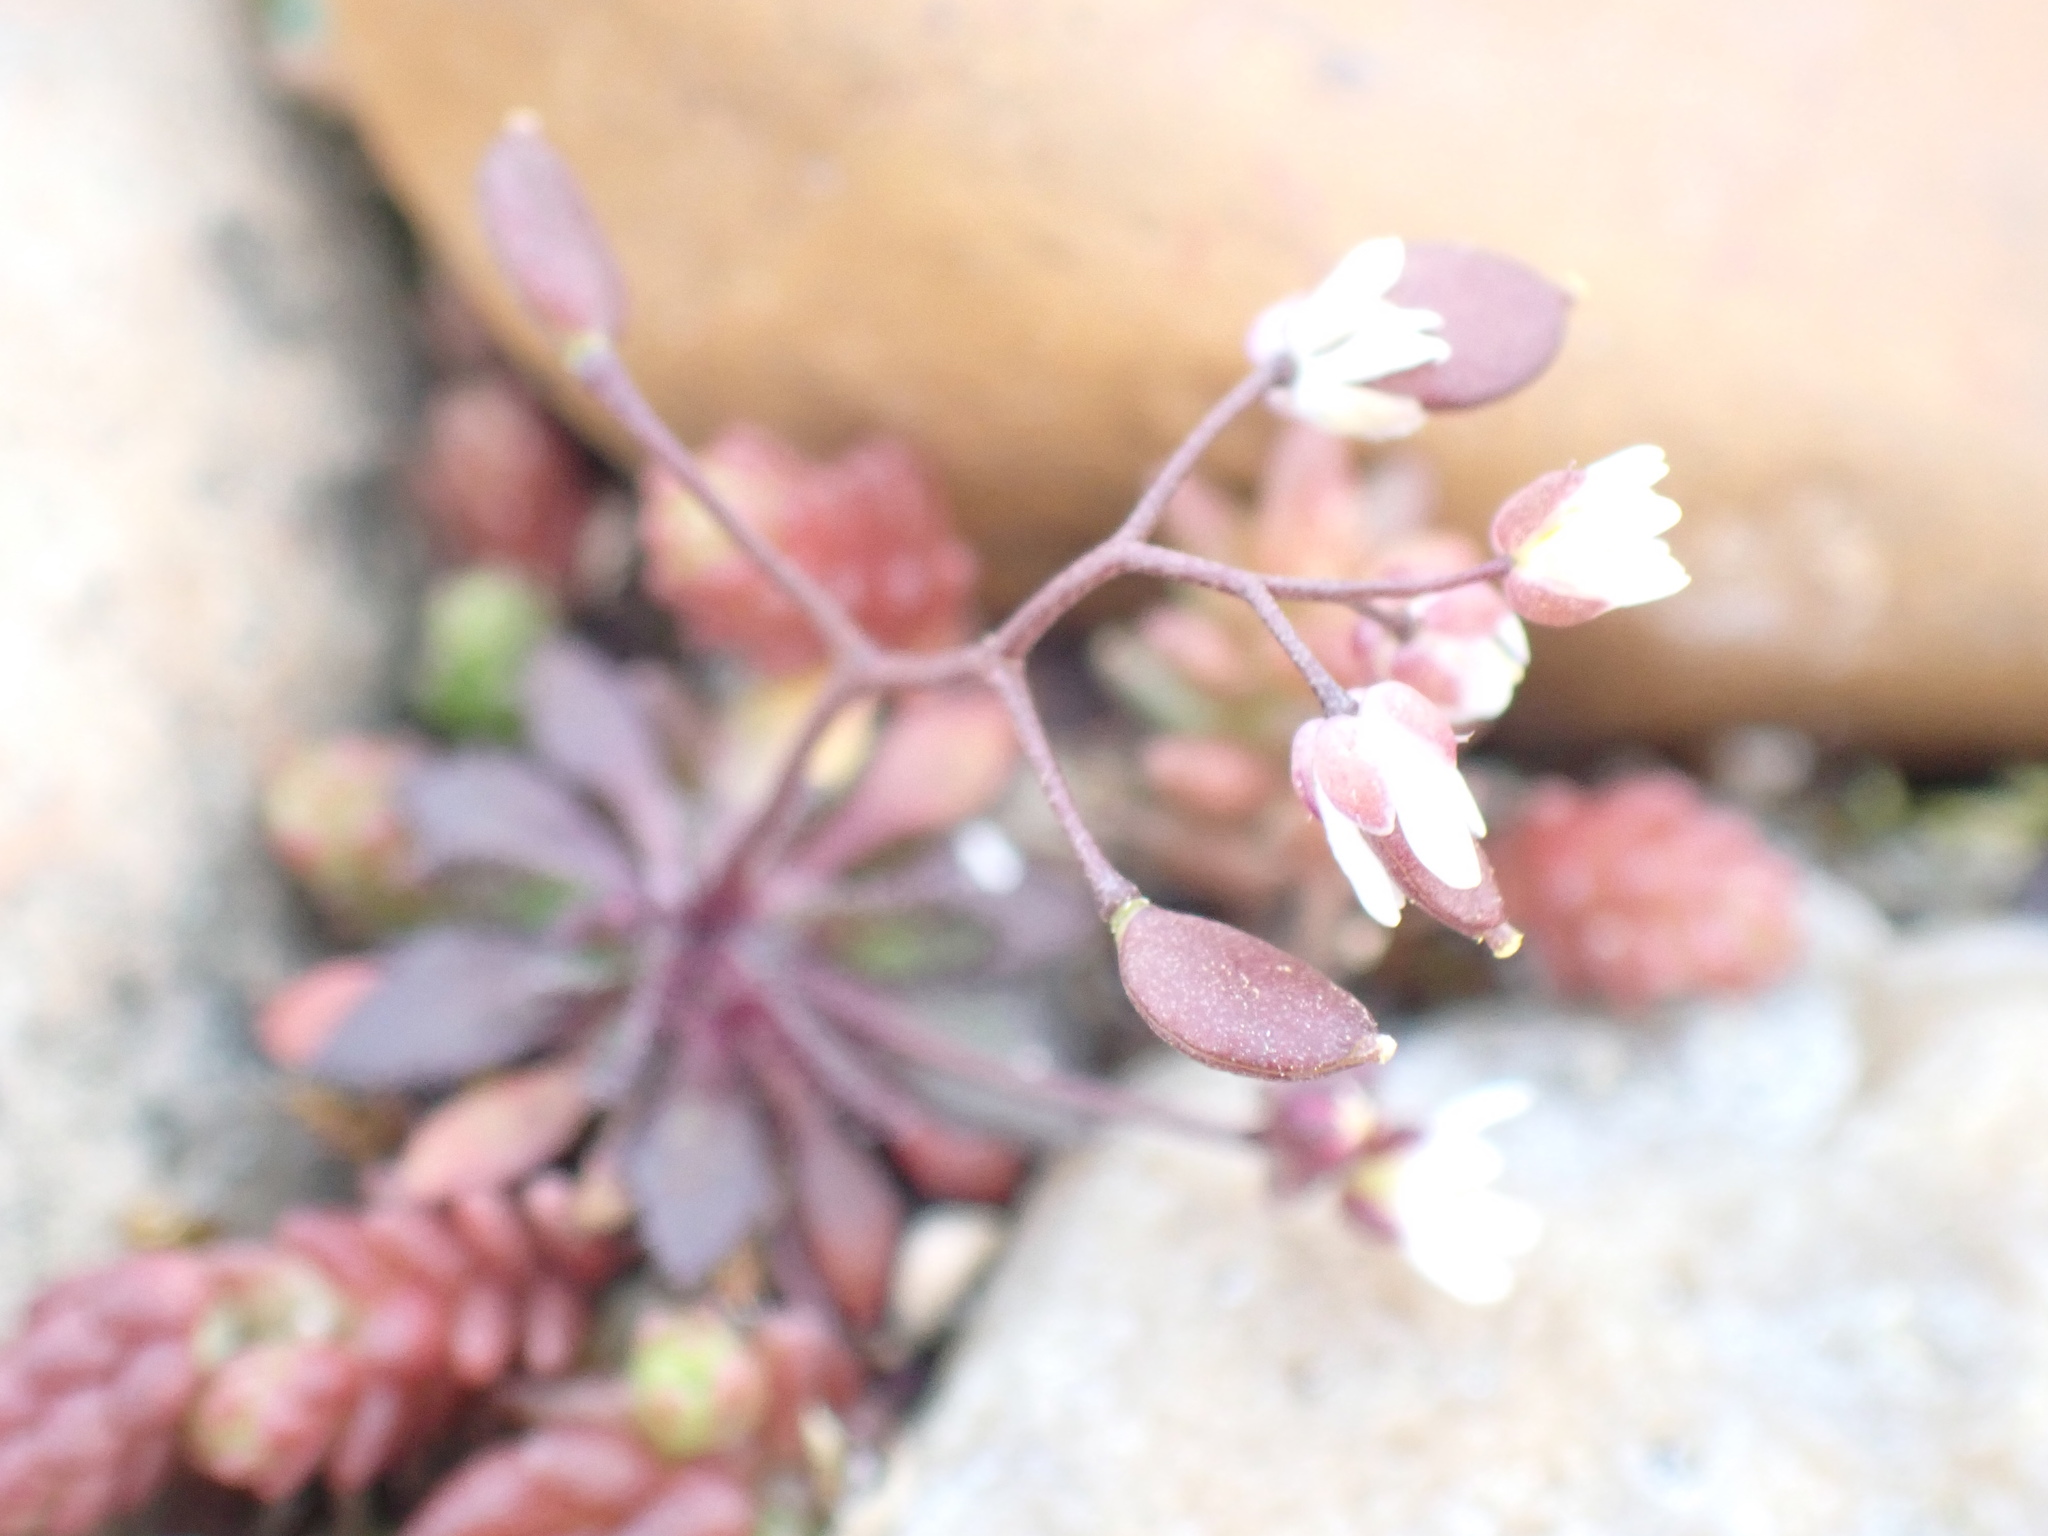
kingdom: Plantae
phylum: Tracheophyta
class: Magnoliopsida
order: Brassicales
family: Brassicaceae
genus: Draba
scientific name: Draba verna
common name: Spring draba
